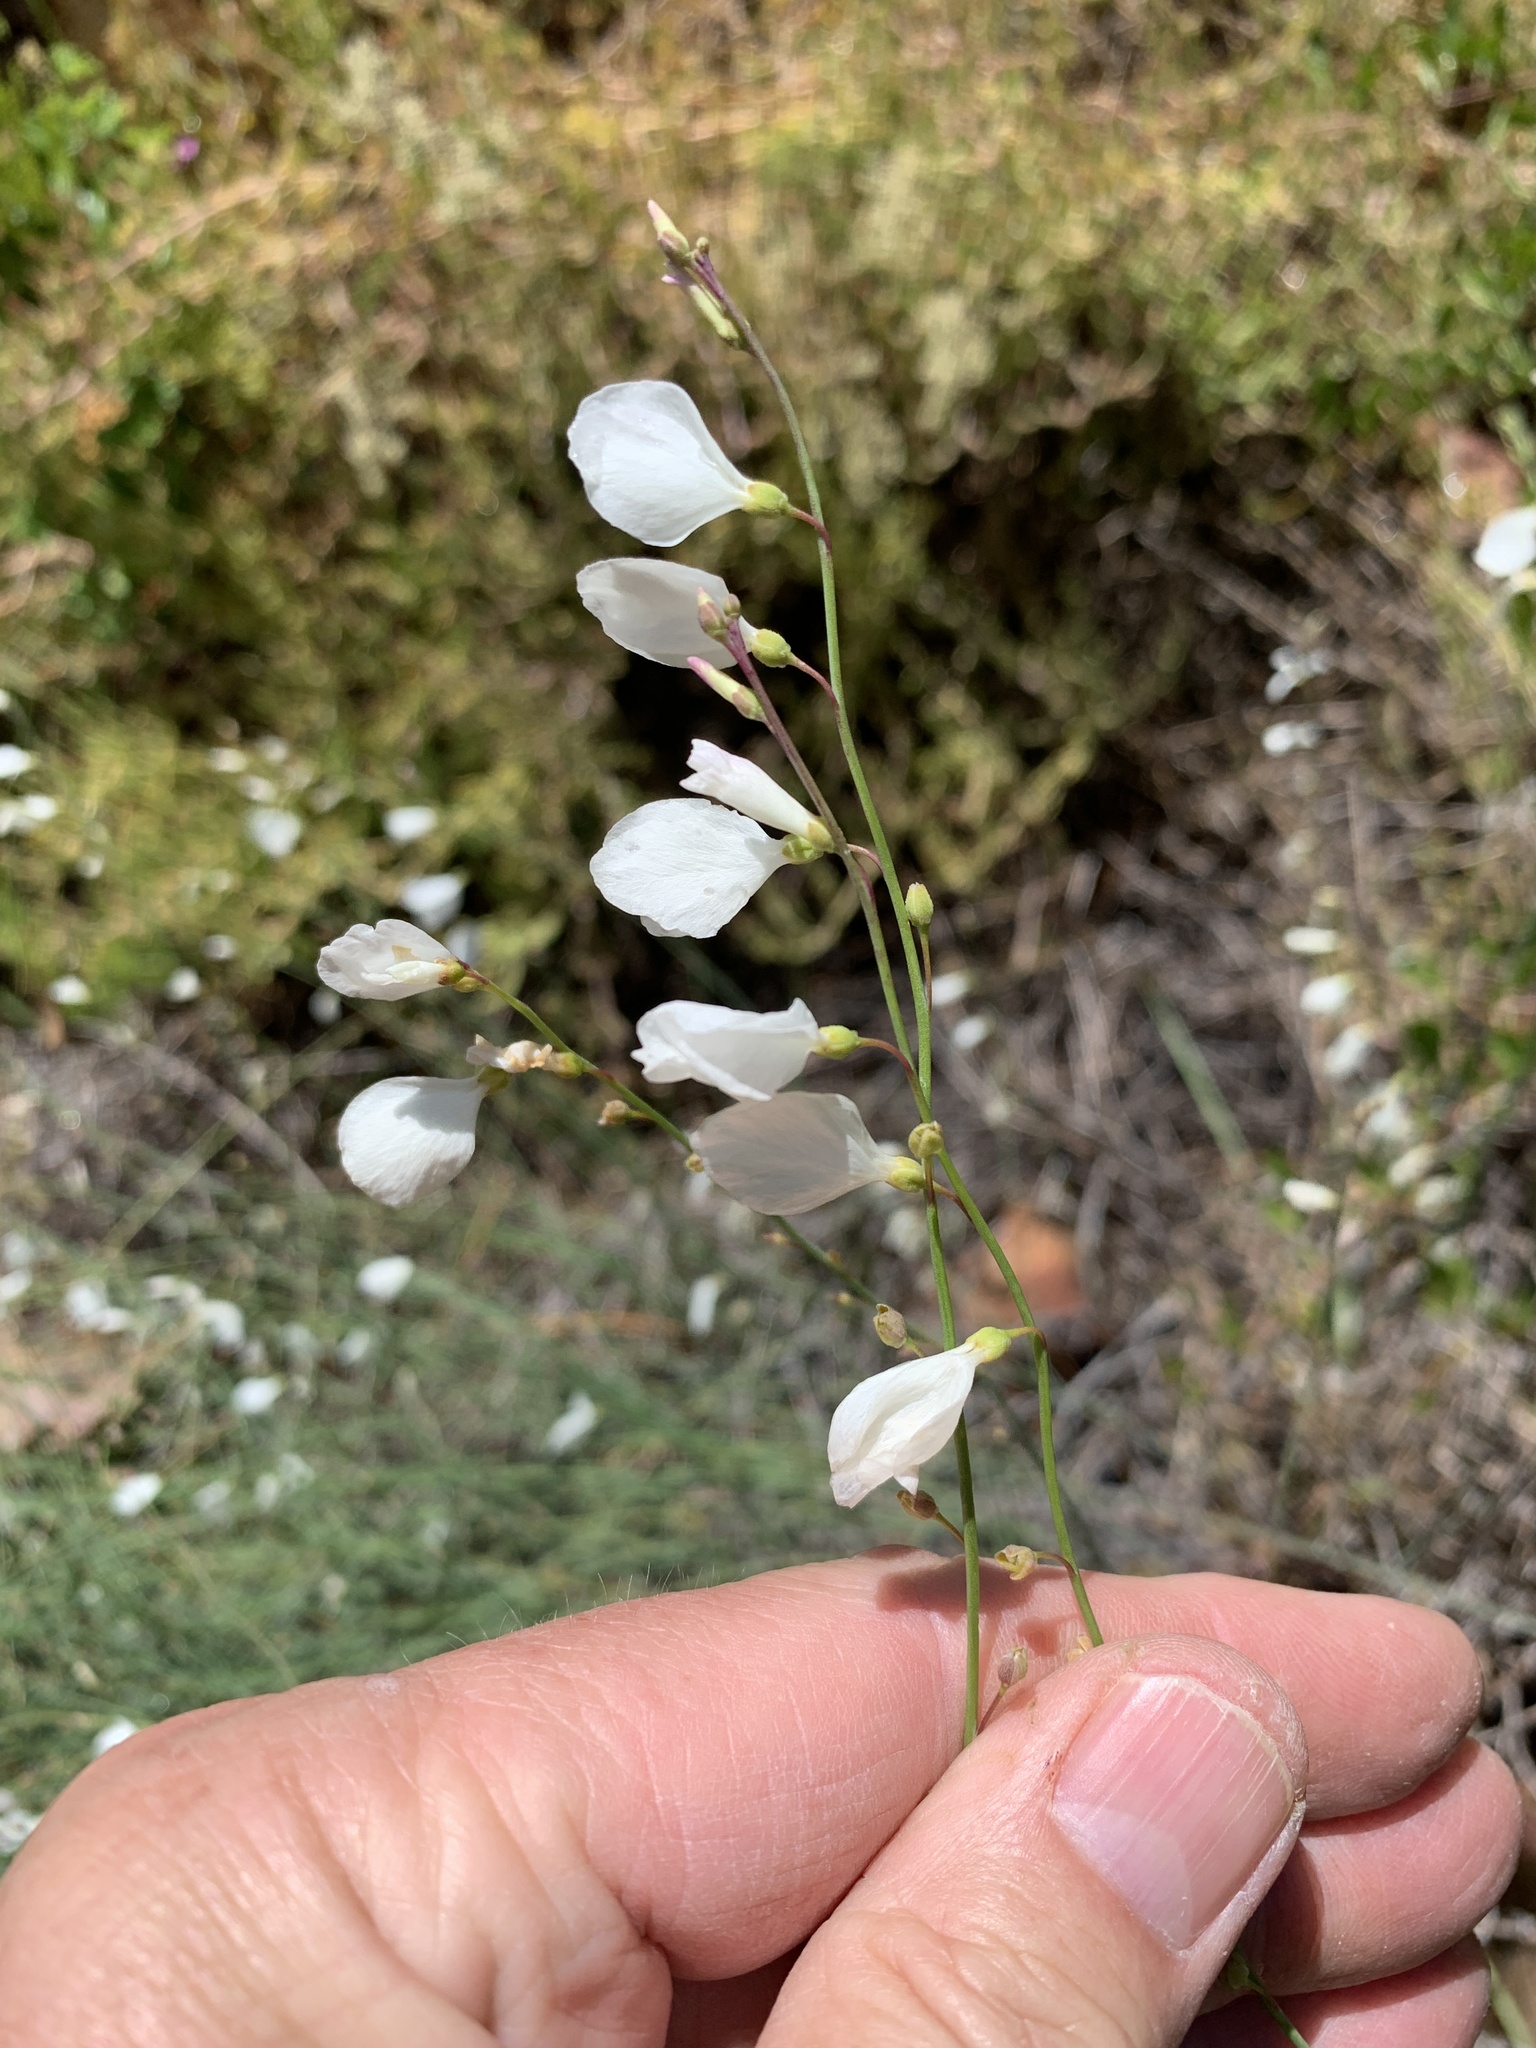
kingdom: Plantae
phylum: Tracheophyta
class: Magnoliopsida
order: Brassicales
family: Brassicaceae
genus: Heliophila
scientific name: Heliophila juncea
